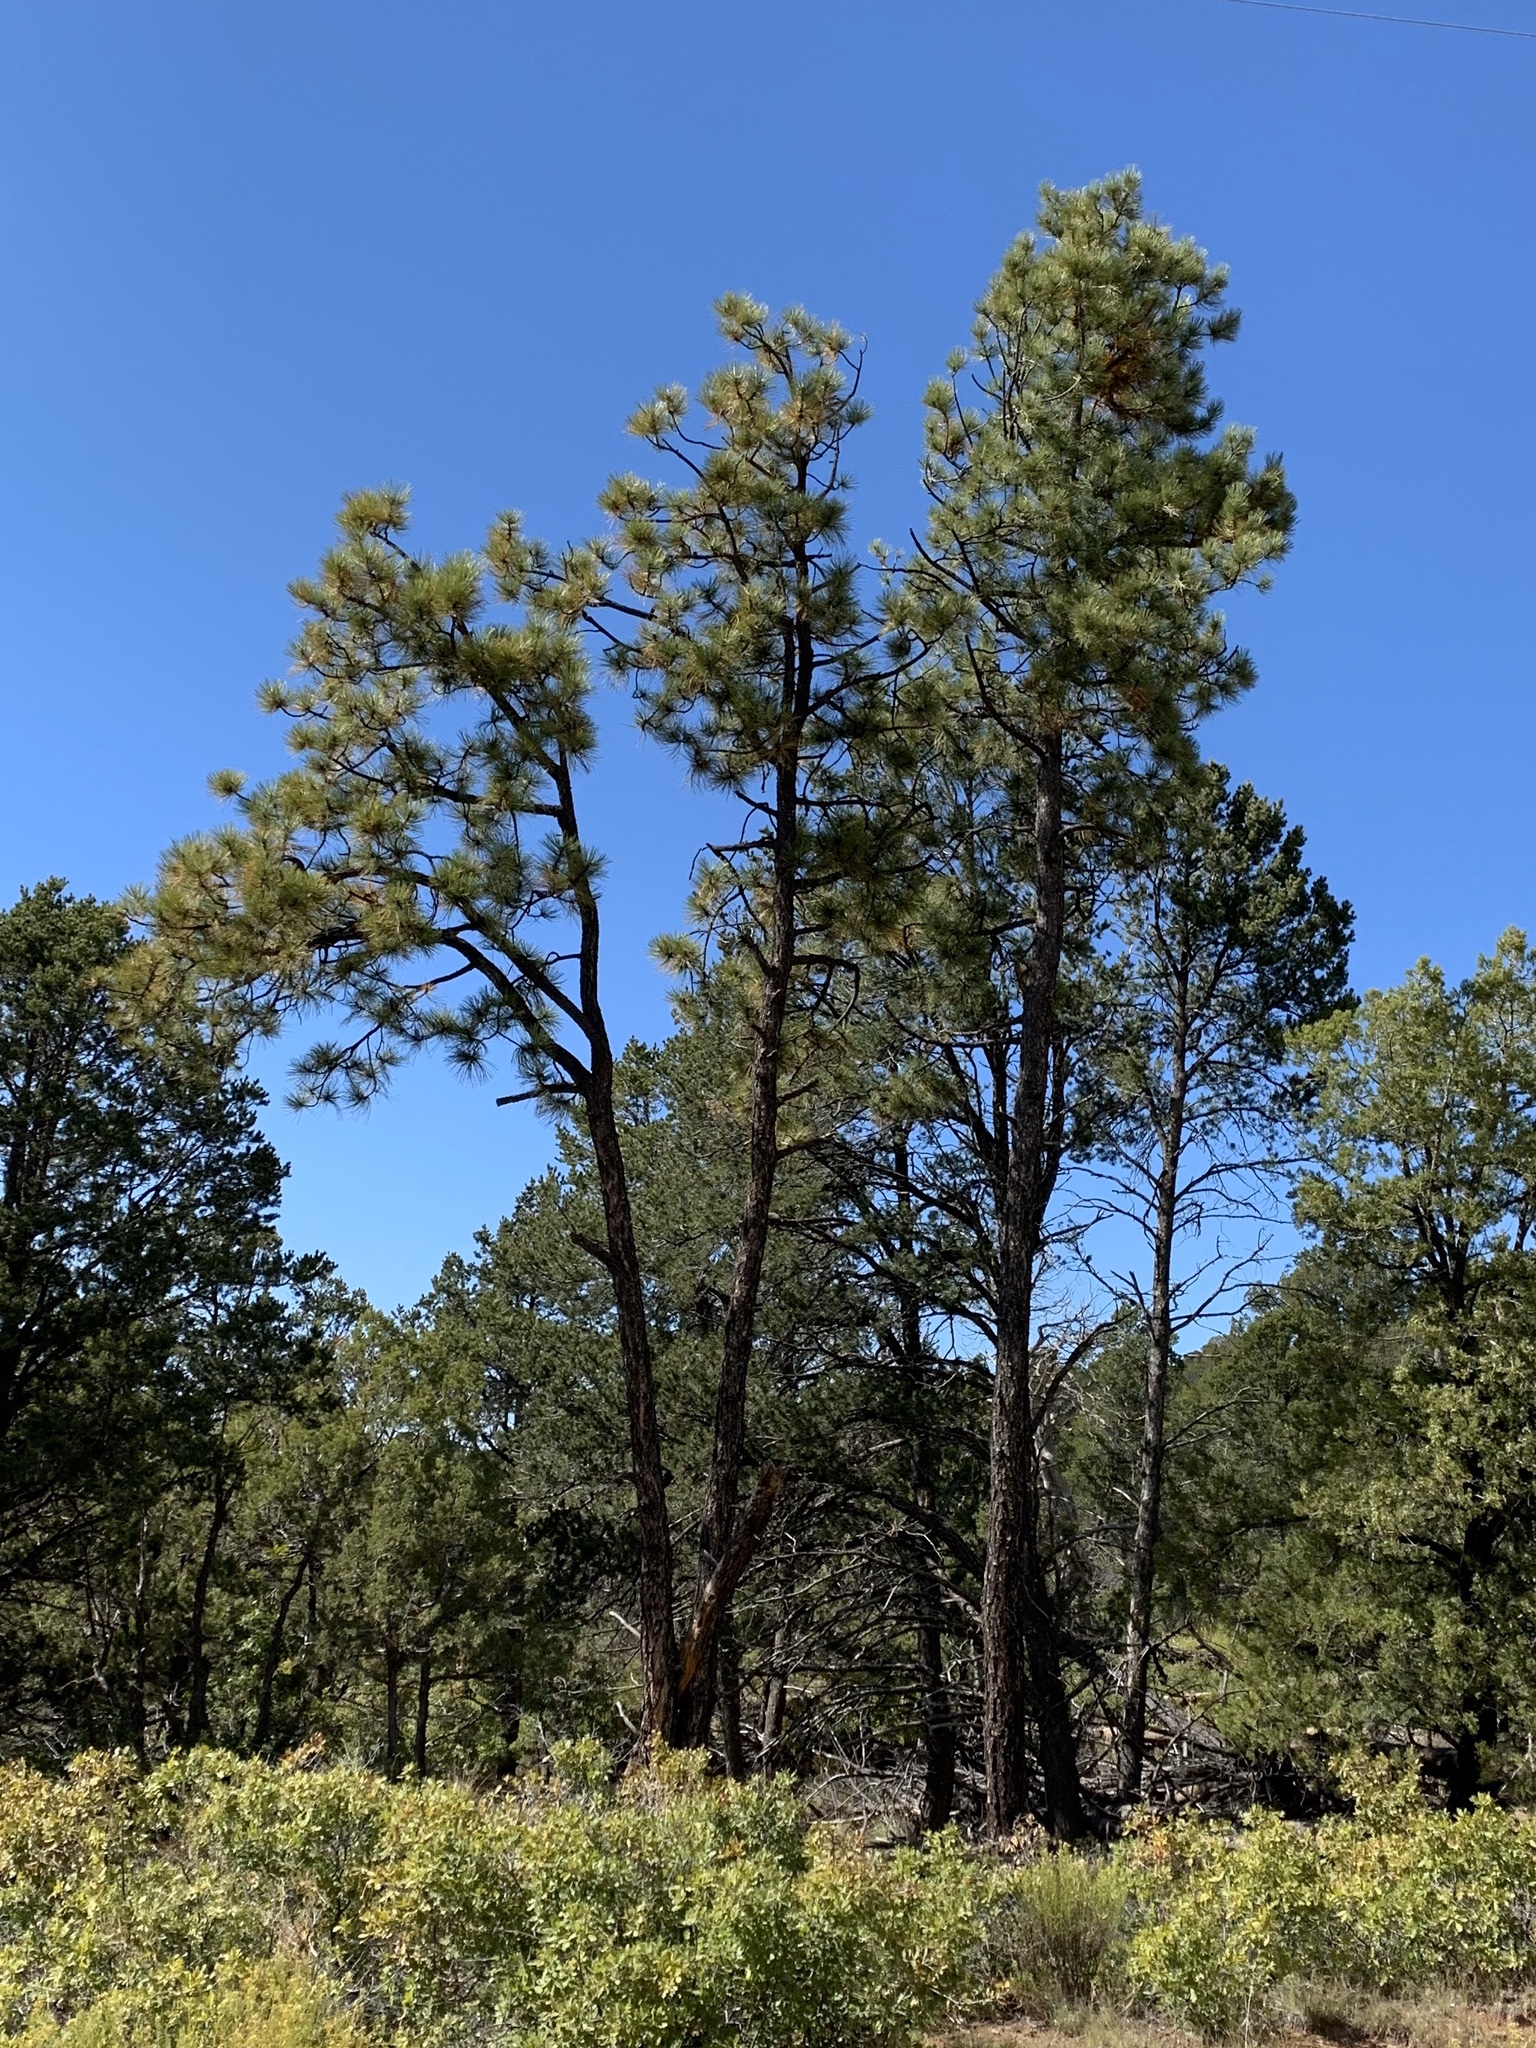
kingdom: Plantae
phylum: Tracheophyta
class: Pinopsida
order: Pinales
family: Pinaceae
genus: Pinus
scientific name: Pinus ponderosa
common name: Western yellow-pine
